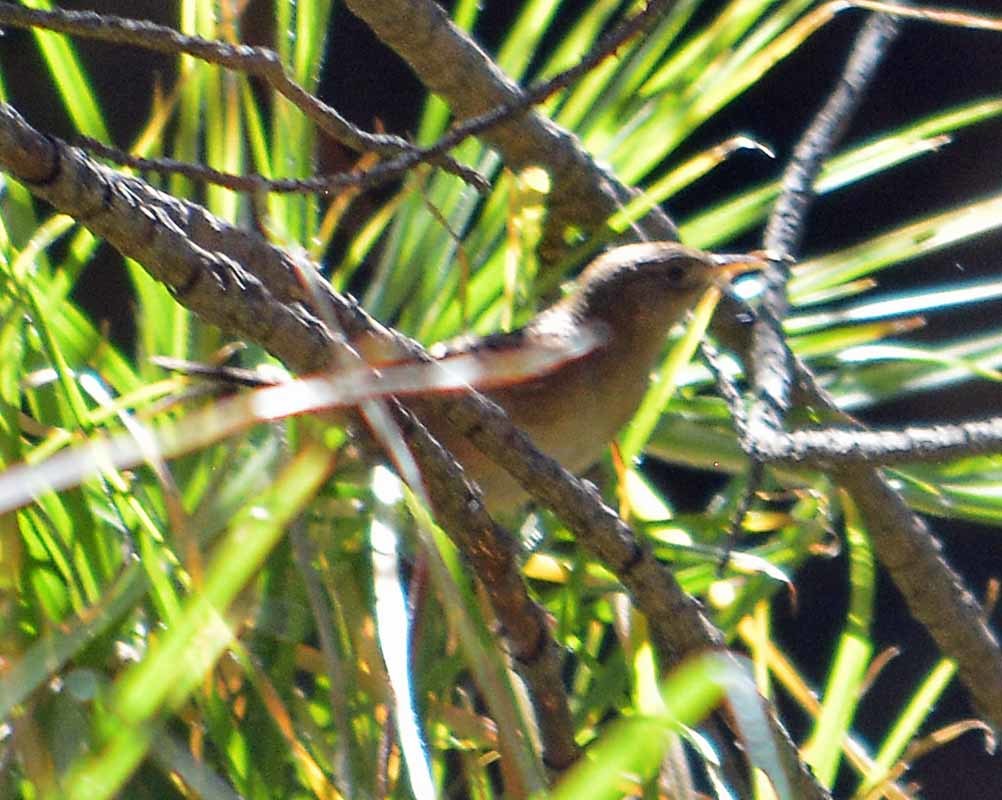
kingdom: Animalia
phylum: Chordata
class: Aves
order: Passeriformes
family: Troglodytidae
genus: Cistothorus
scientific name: Cistothorus palustris
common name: Marsh wren
